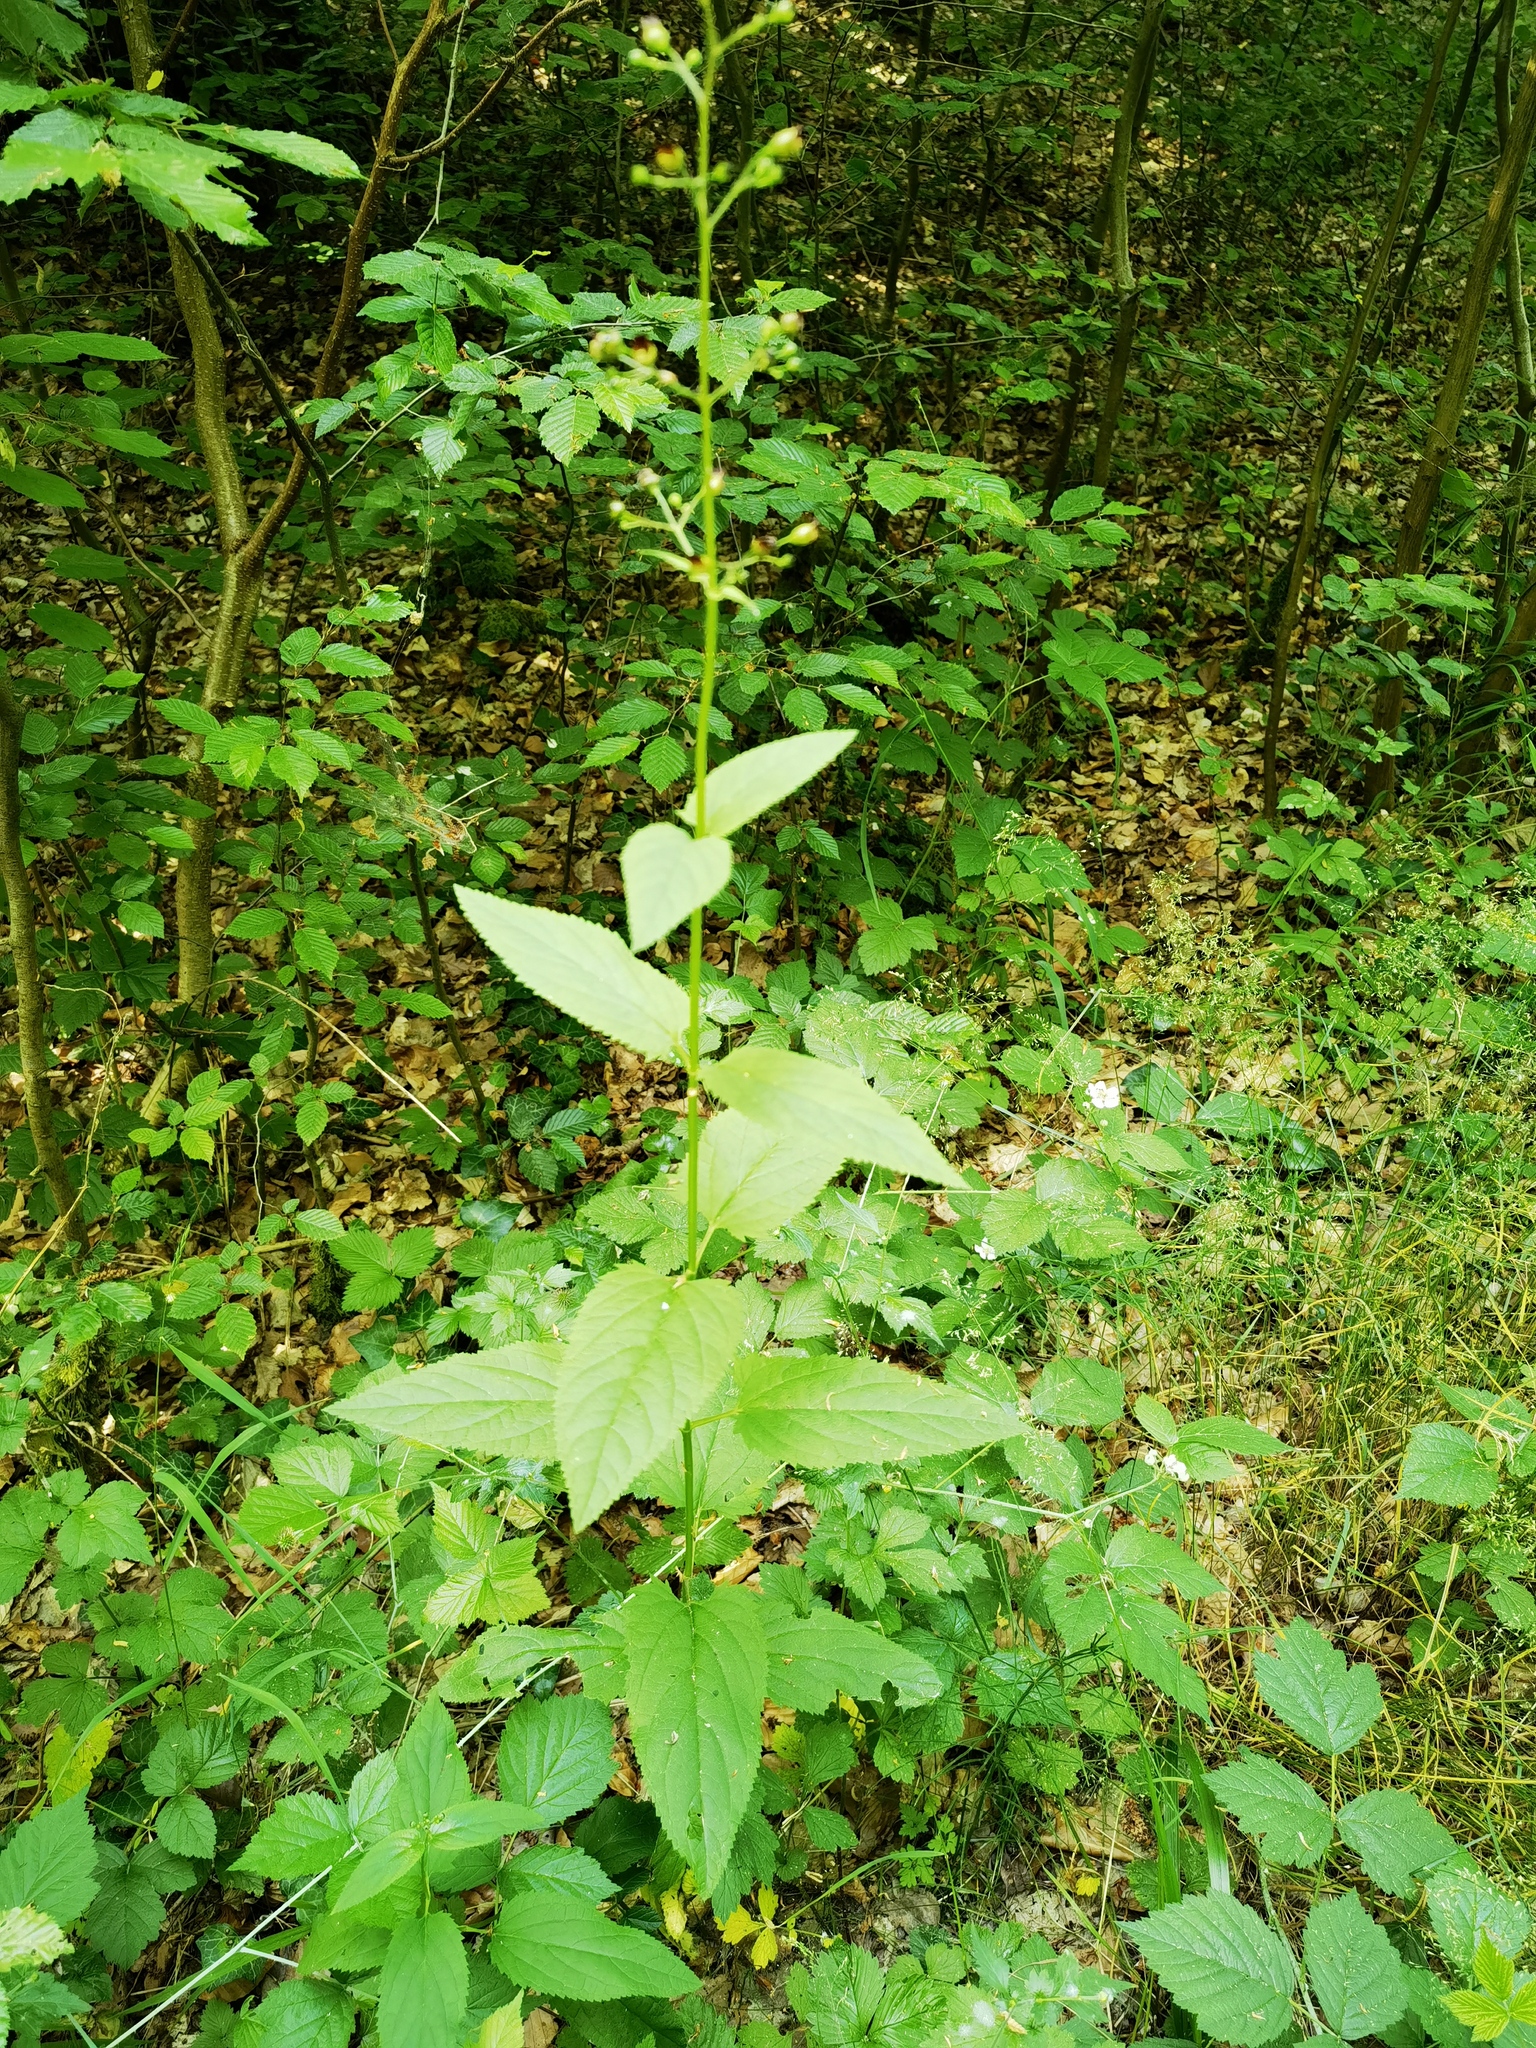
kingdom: Plantae
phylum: Tracheophyta
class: Magnoliopsida
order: Lamiales
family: Scrophulariaceae
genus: Scrophularia
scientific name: Scrophularia nodosa
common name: Common figwort
